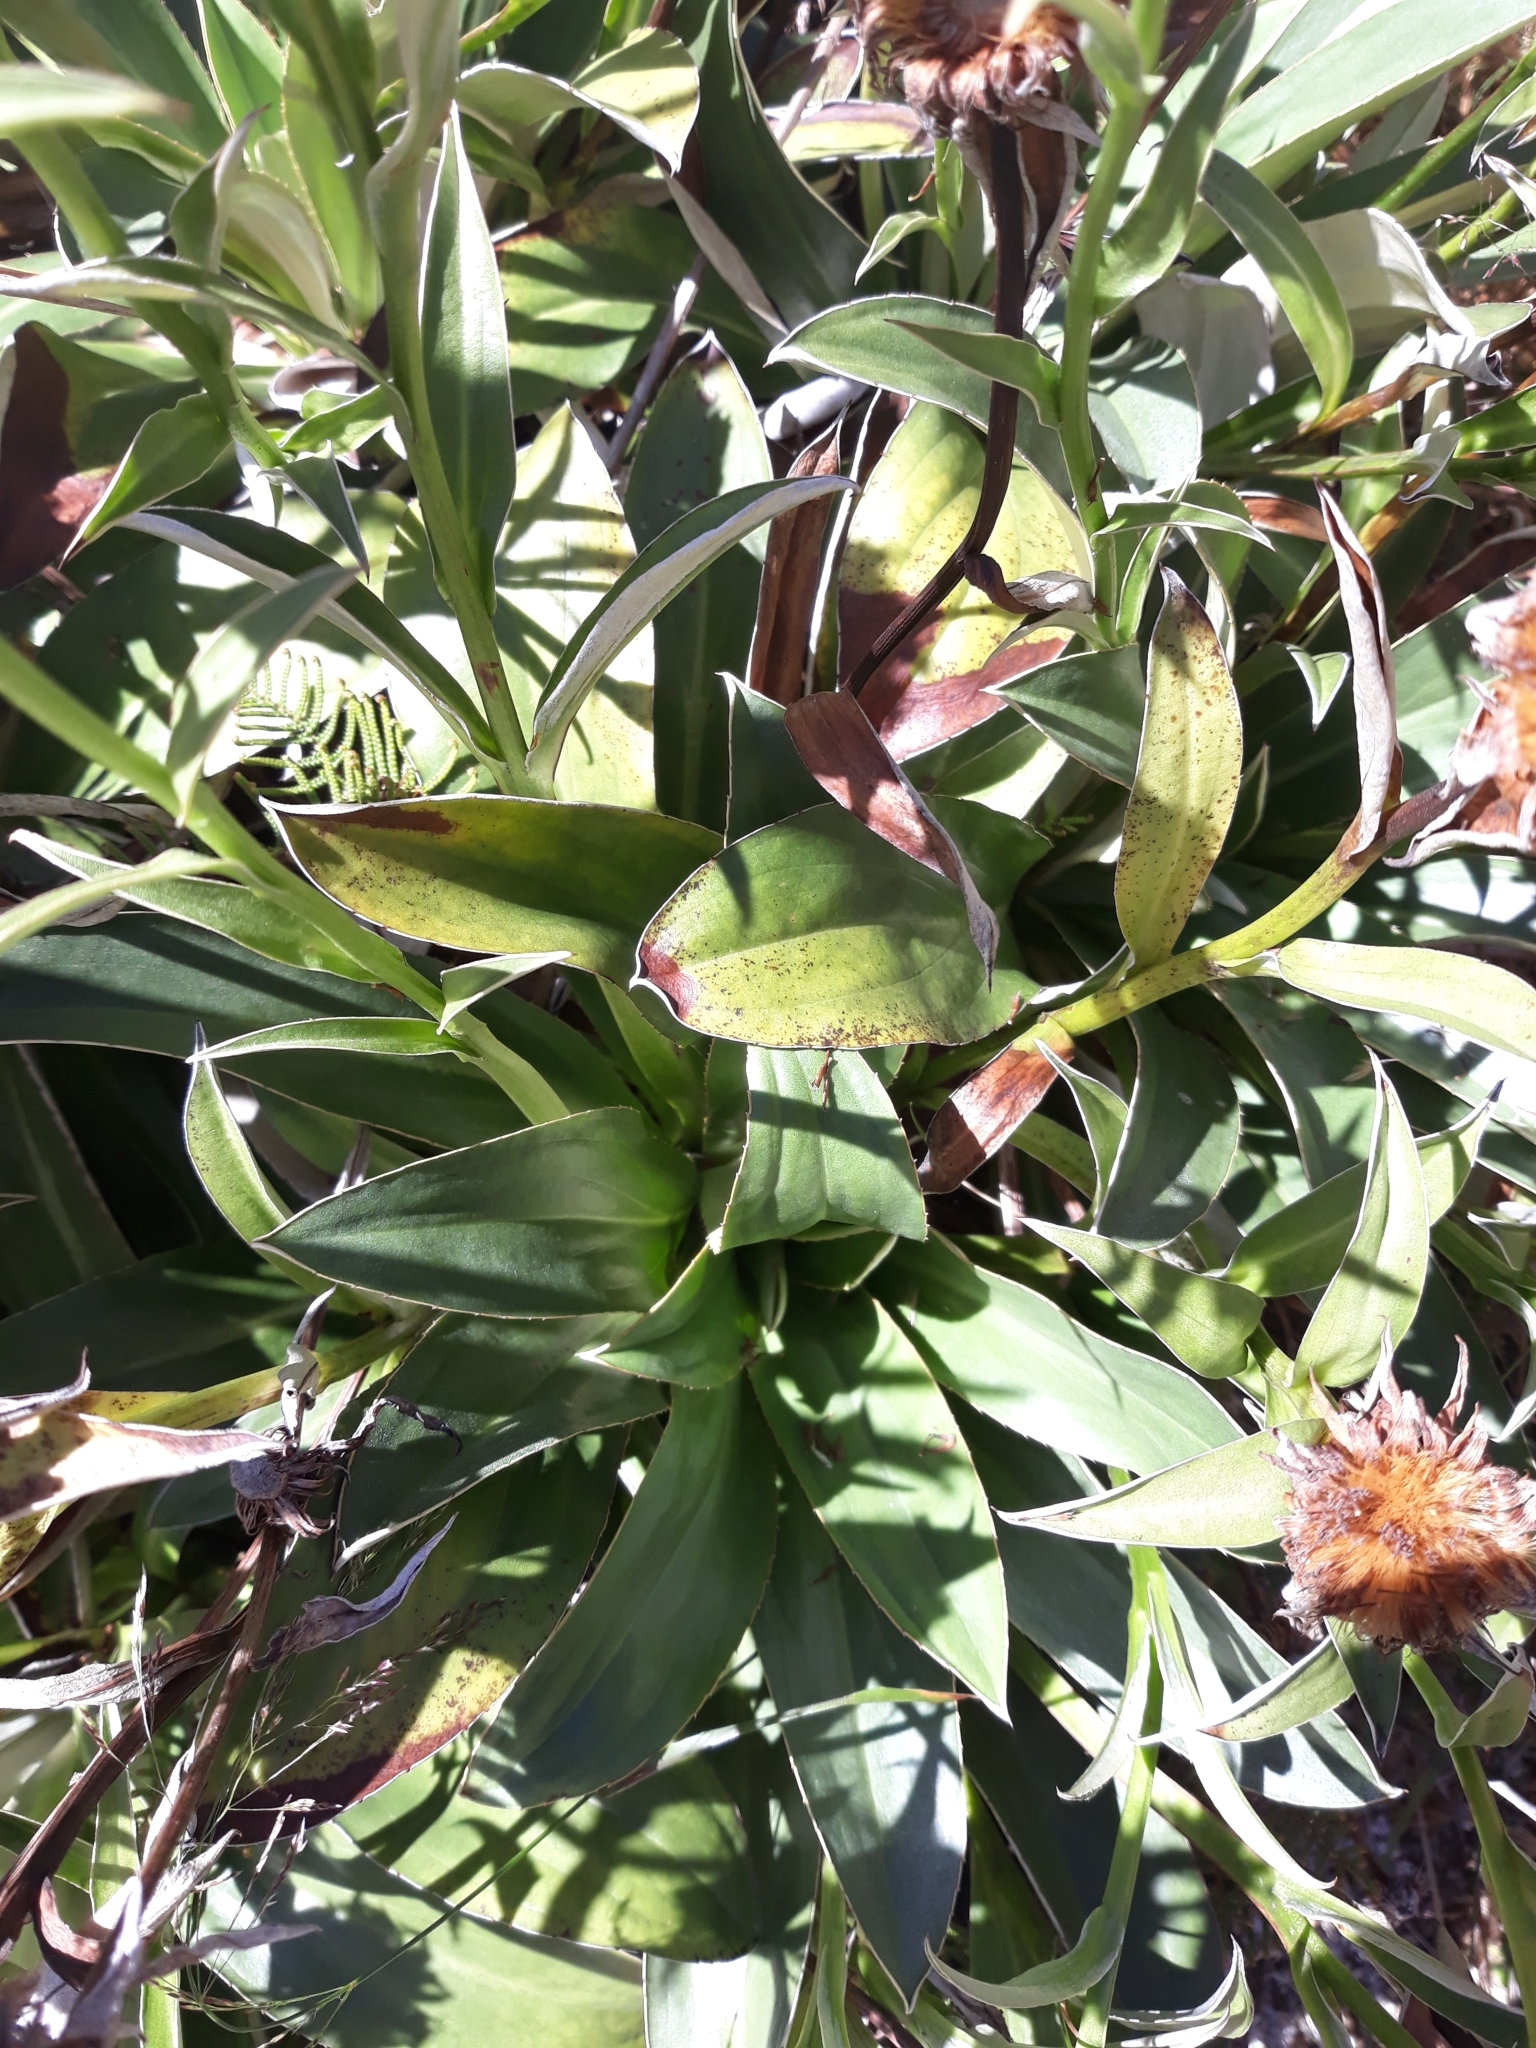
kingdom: Plantae
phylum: Tracheophyta
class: Magnoliopsida
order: Asterales
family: Asteraceae
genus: Celmisia
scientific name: Celmisia dallii
